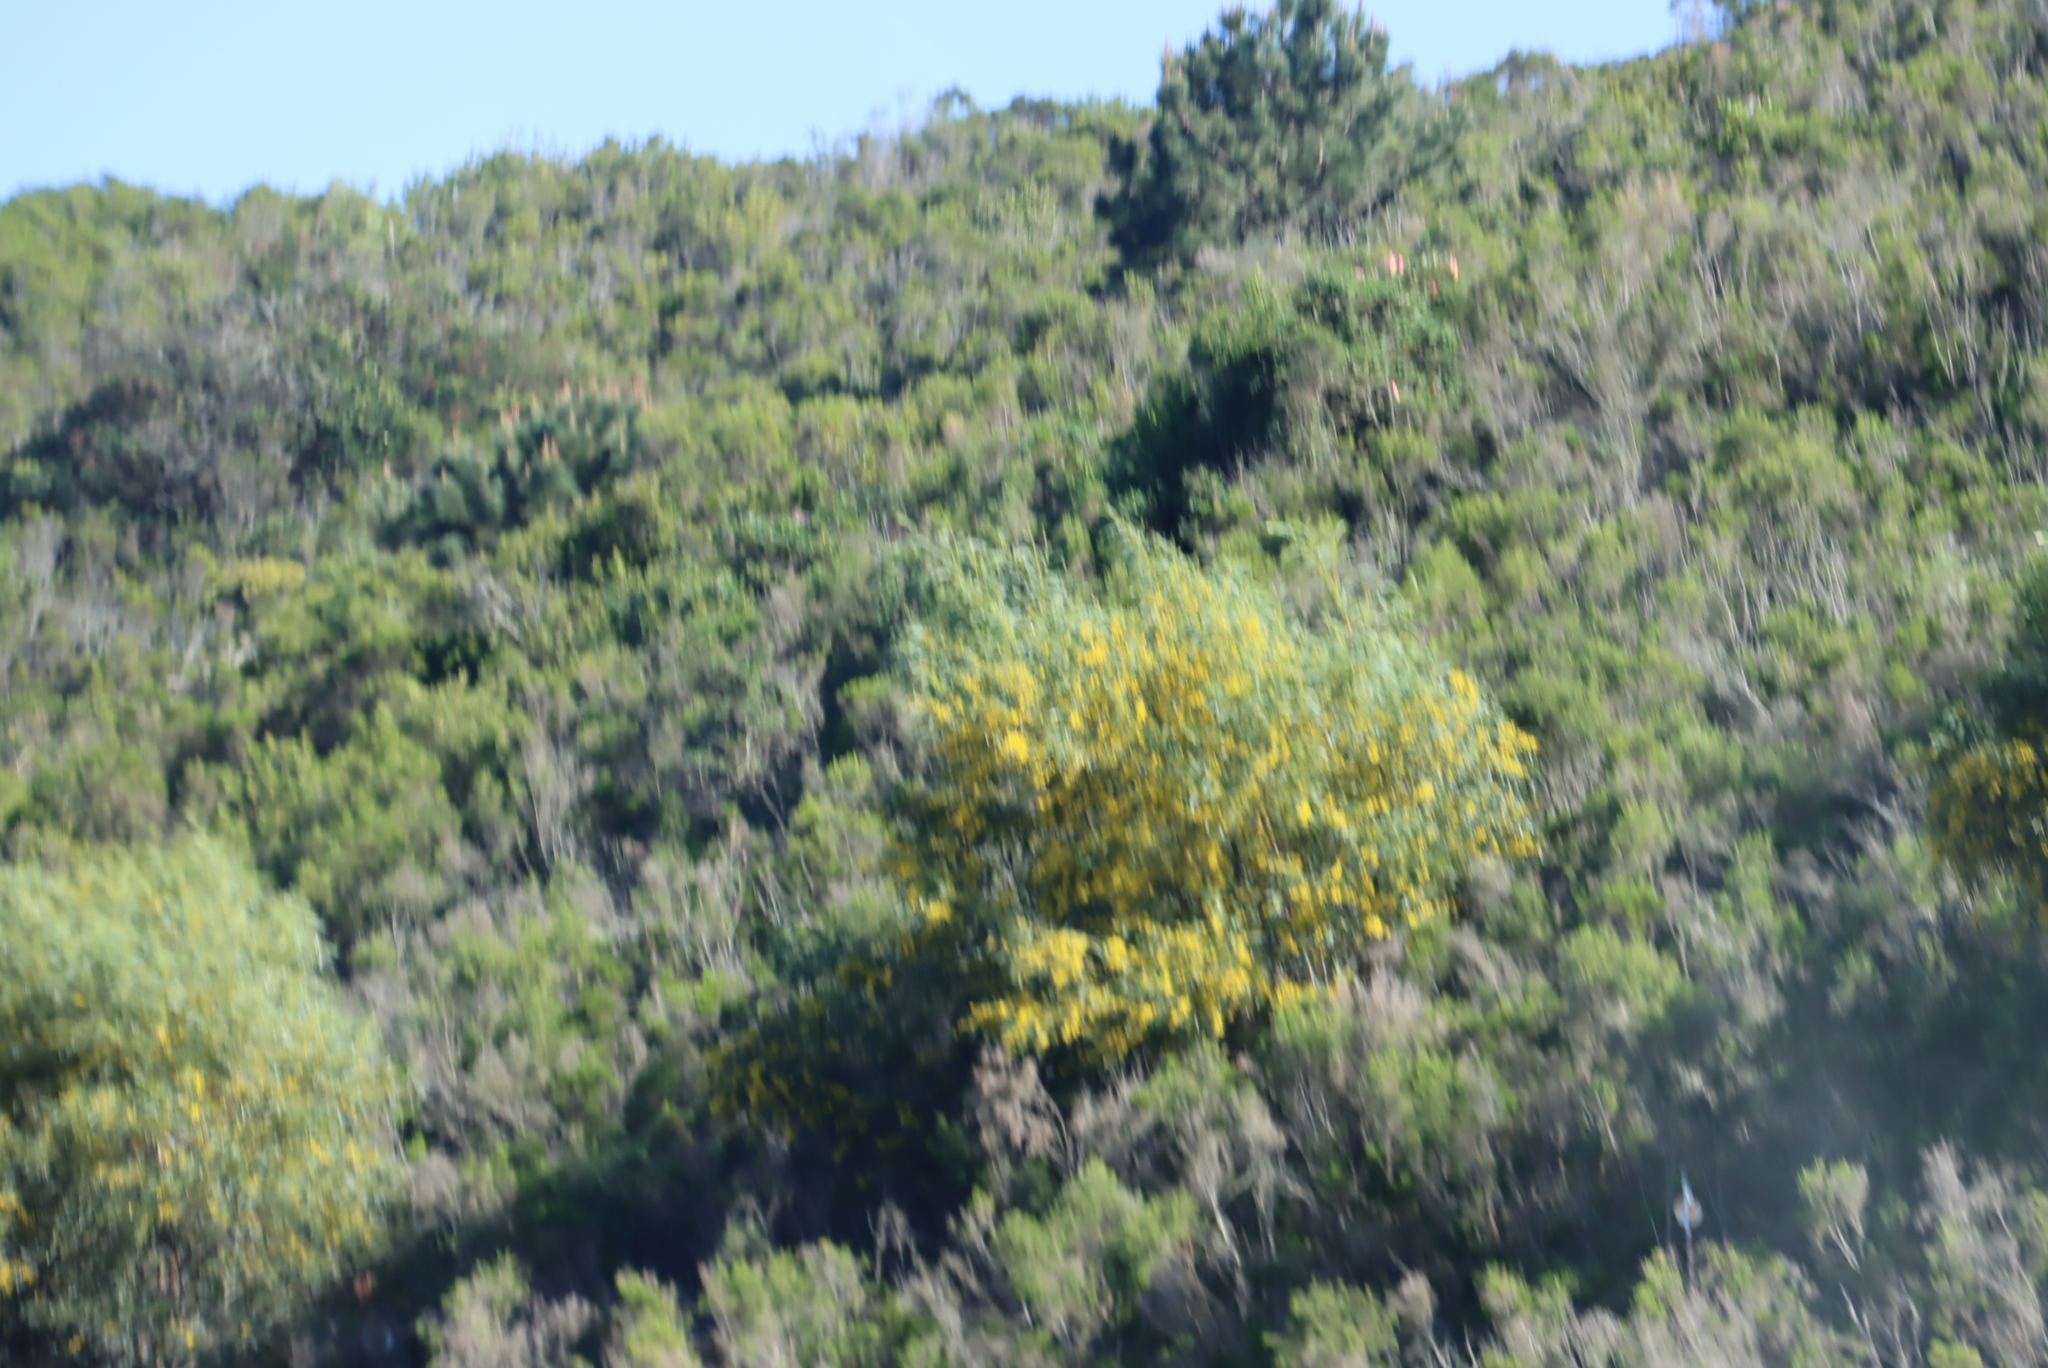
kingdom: Plantae
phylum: Tracheophyta
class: Magnoliopsida
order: Fabales
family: Fabaceae
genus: Acacia
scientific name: Acacia saligna
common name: Orange wattle
